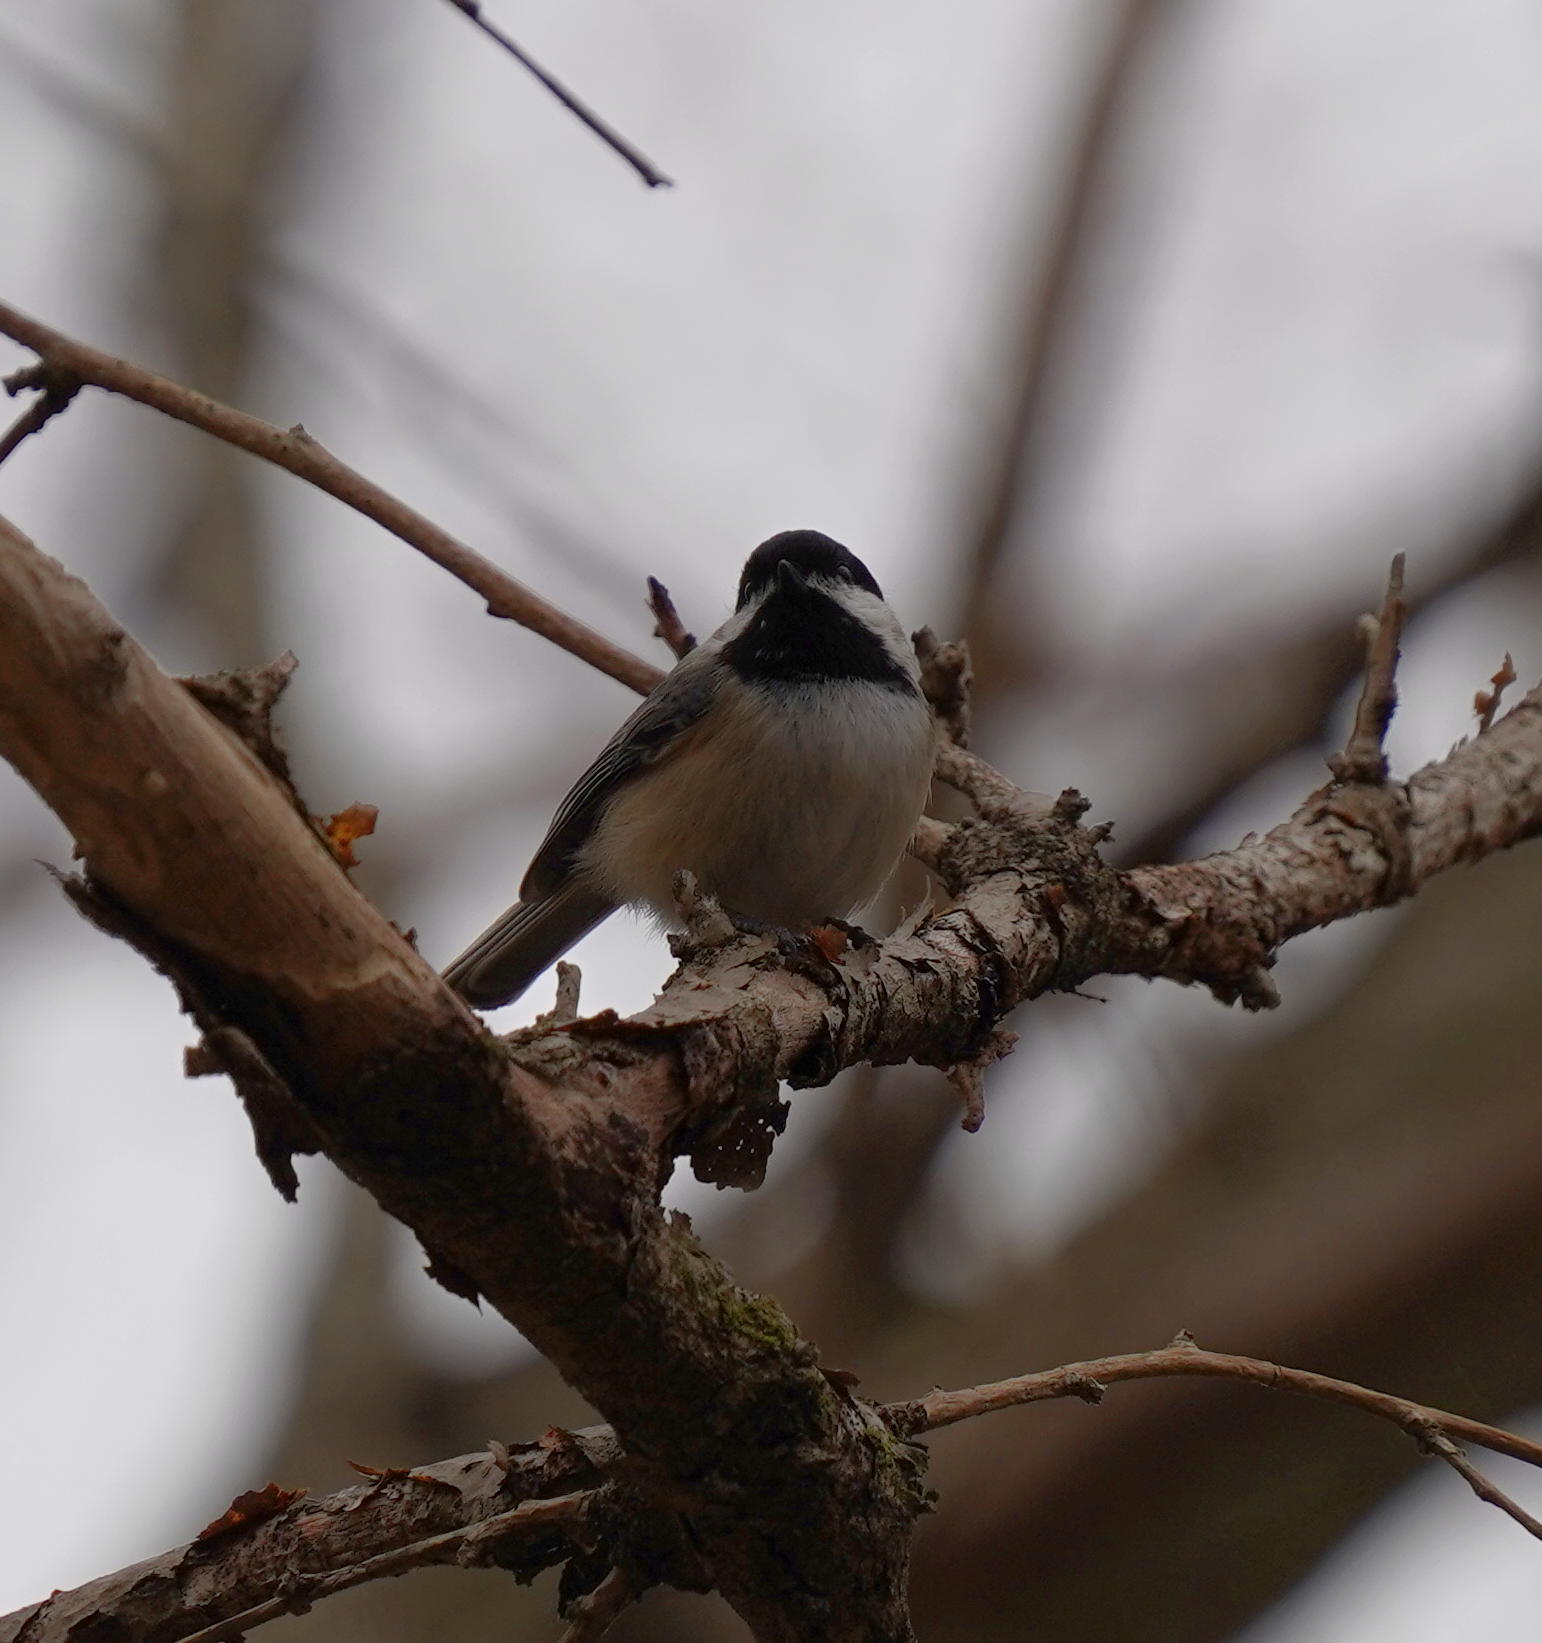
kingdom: Animalia
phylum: Chordata
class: Aves
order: Passeriformes
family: Paridae
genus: Poecile
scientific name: Poecile atricapillus
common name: Black-capped chickadee
